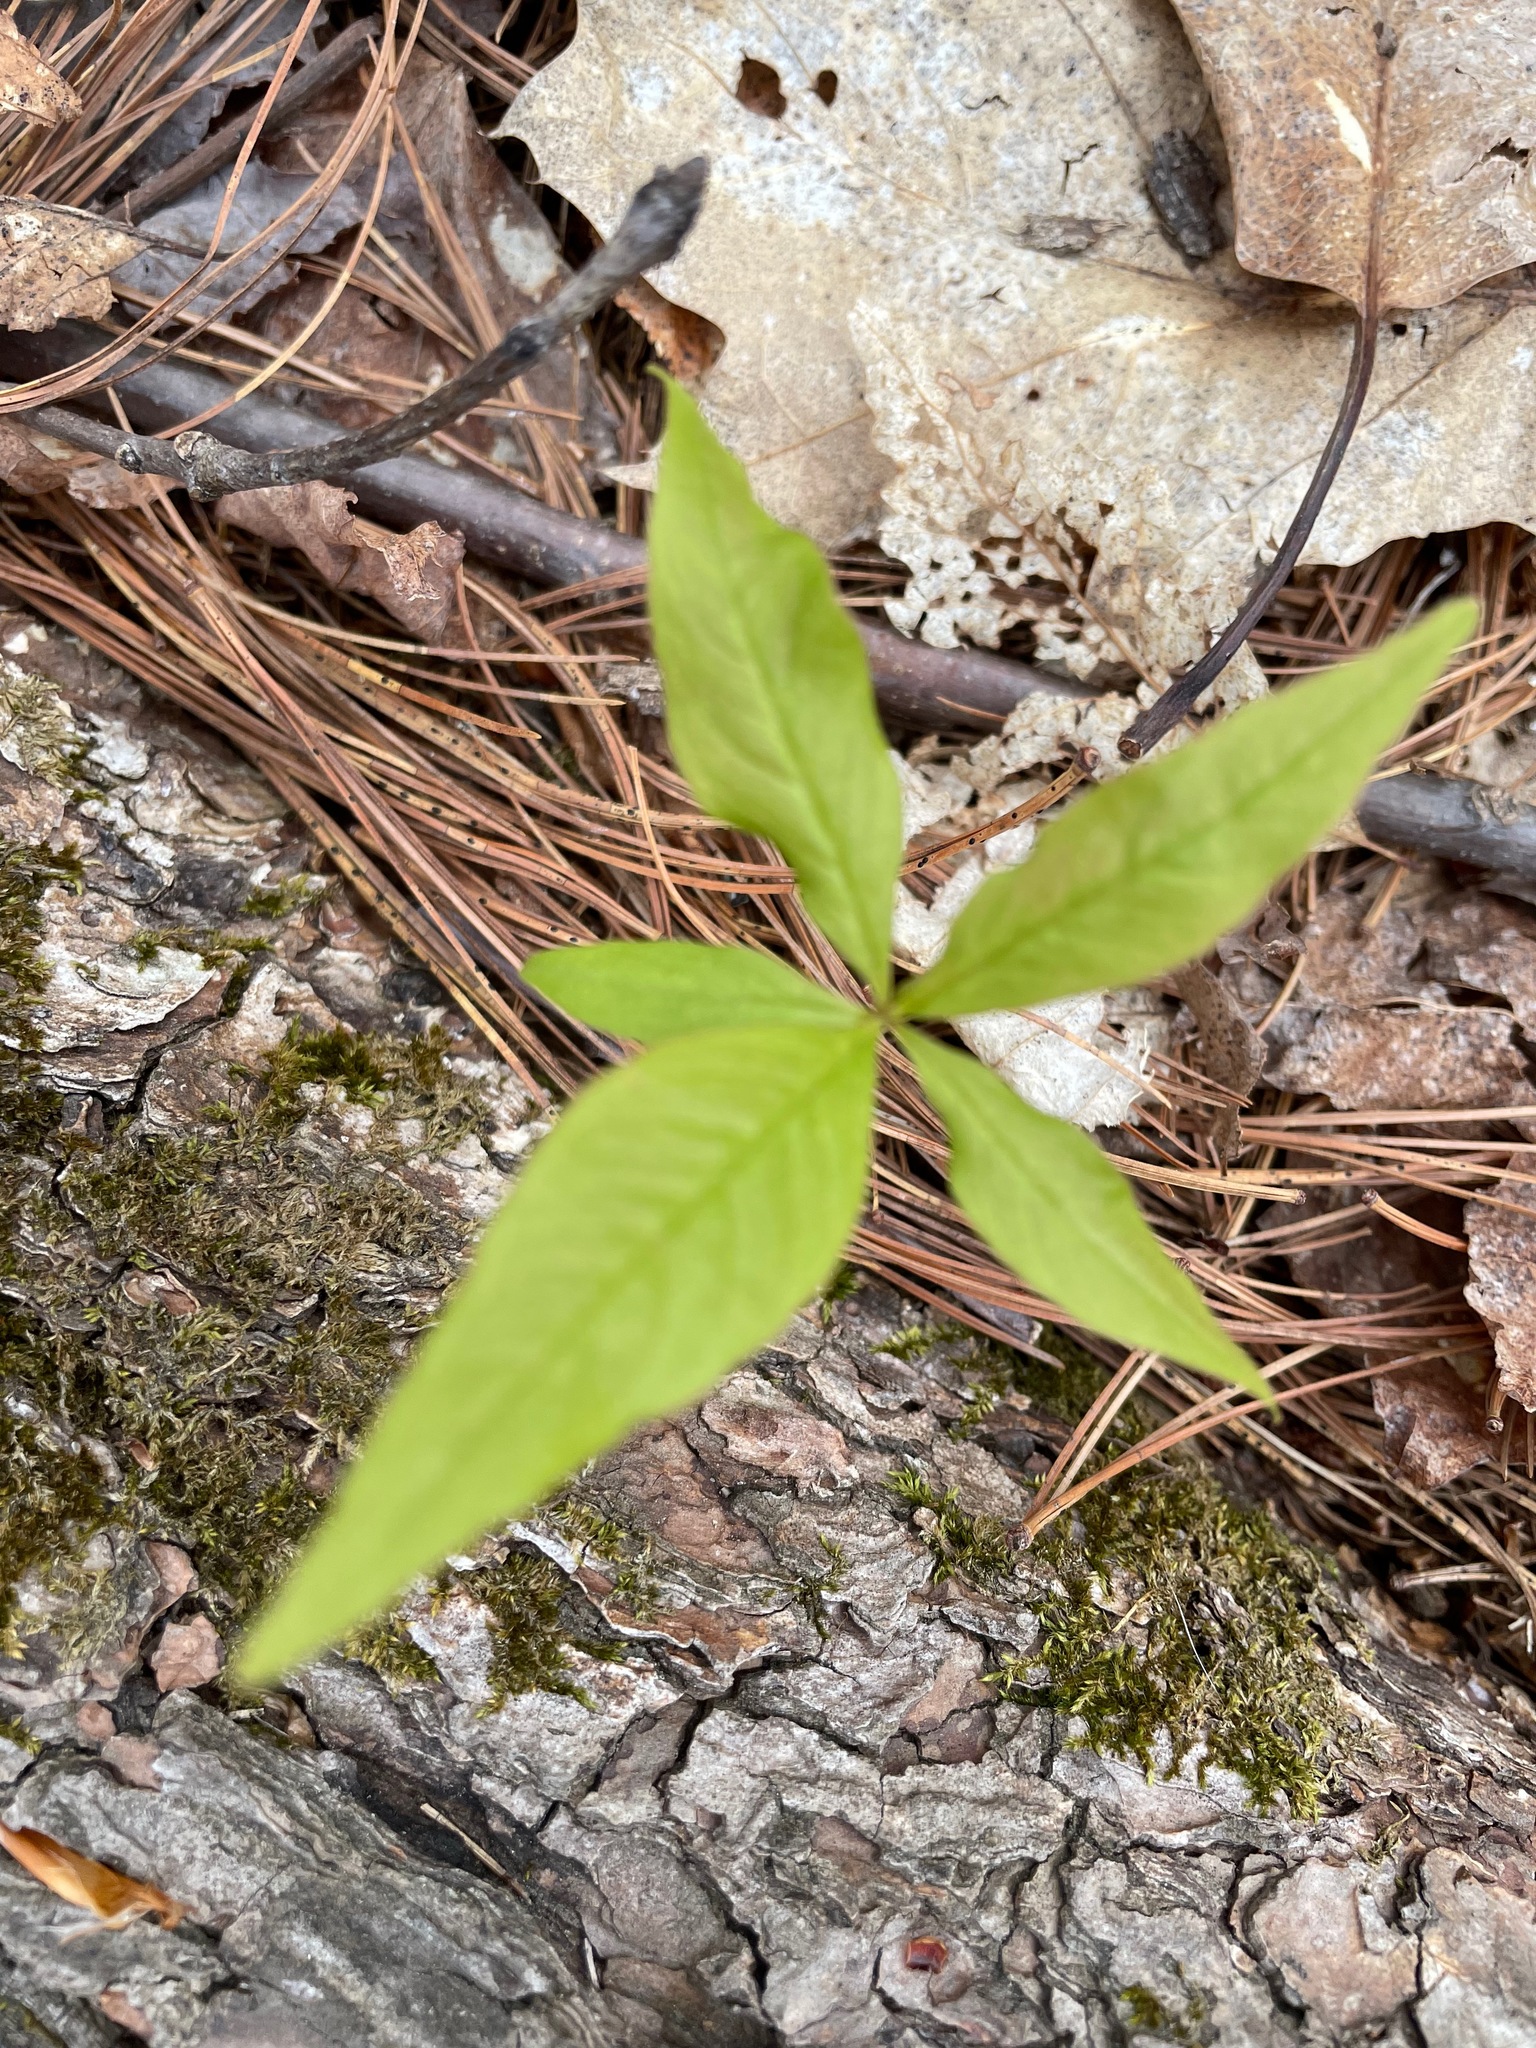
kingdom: Plantae
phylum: Tracheophyta
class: Magnoliopsida
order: Ericales
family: Primulaceae
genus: Lysimachia
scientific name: Lysimachia borealis
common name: American starflower
